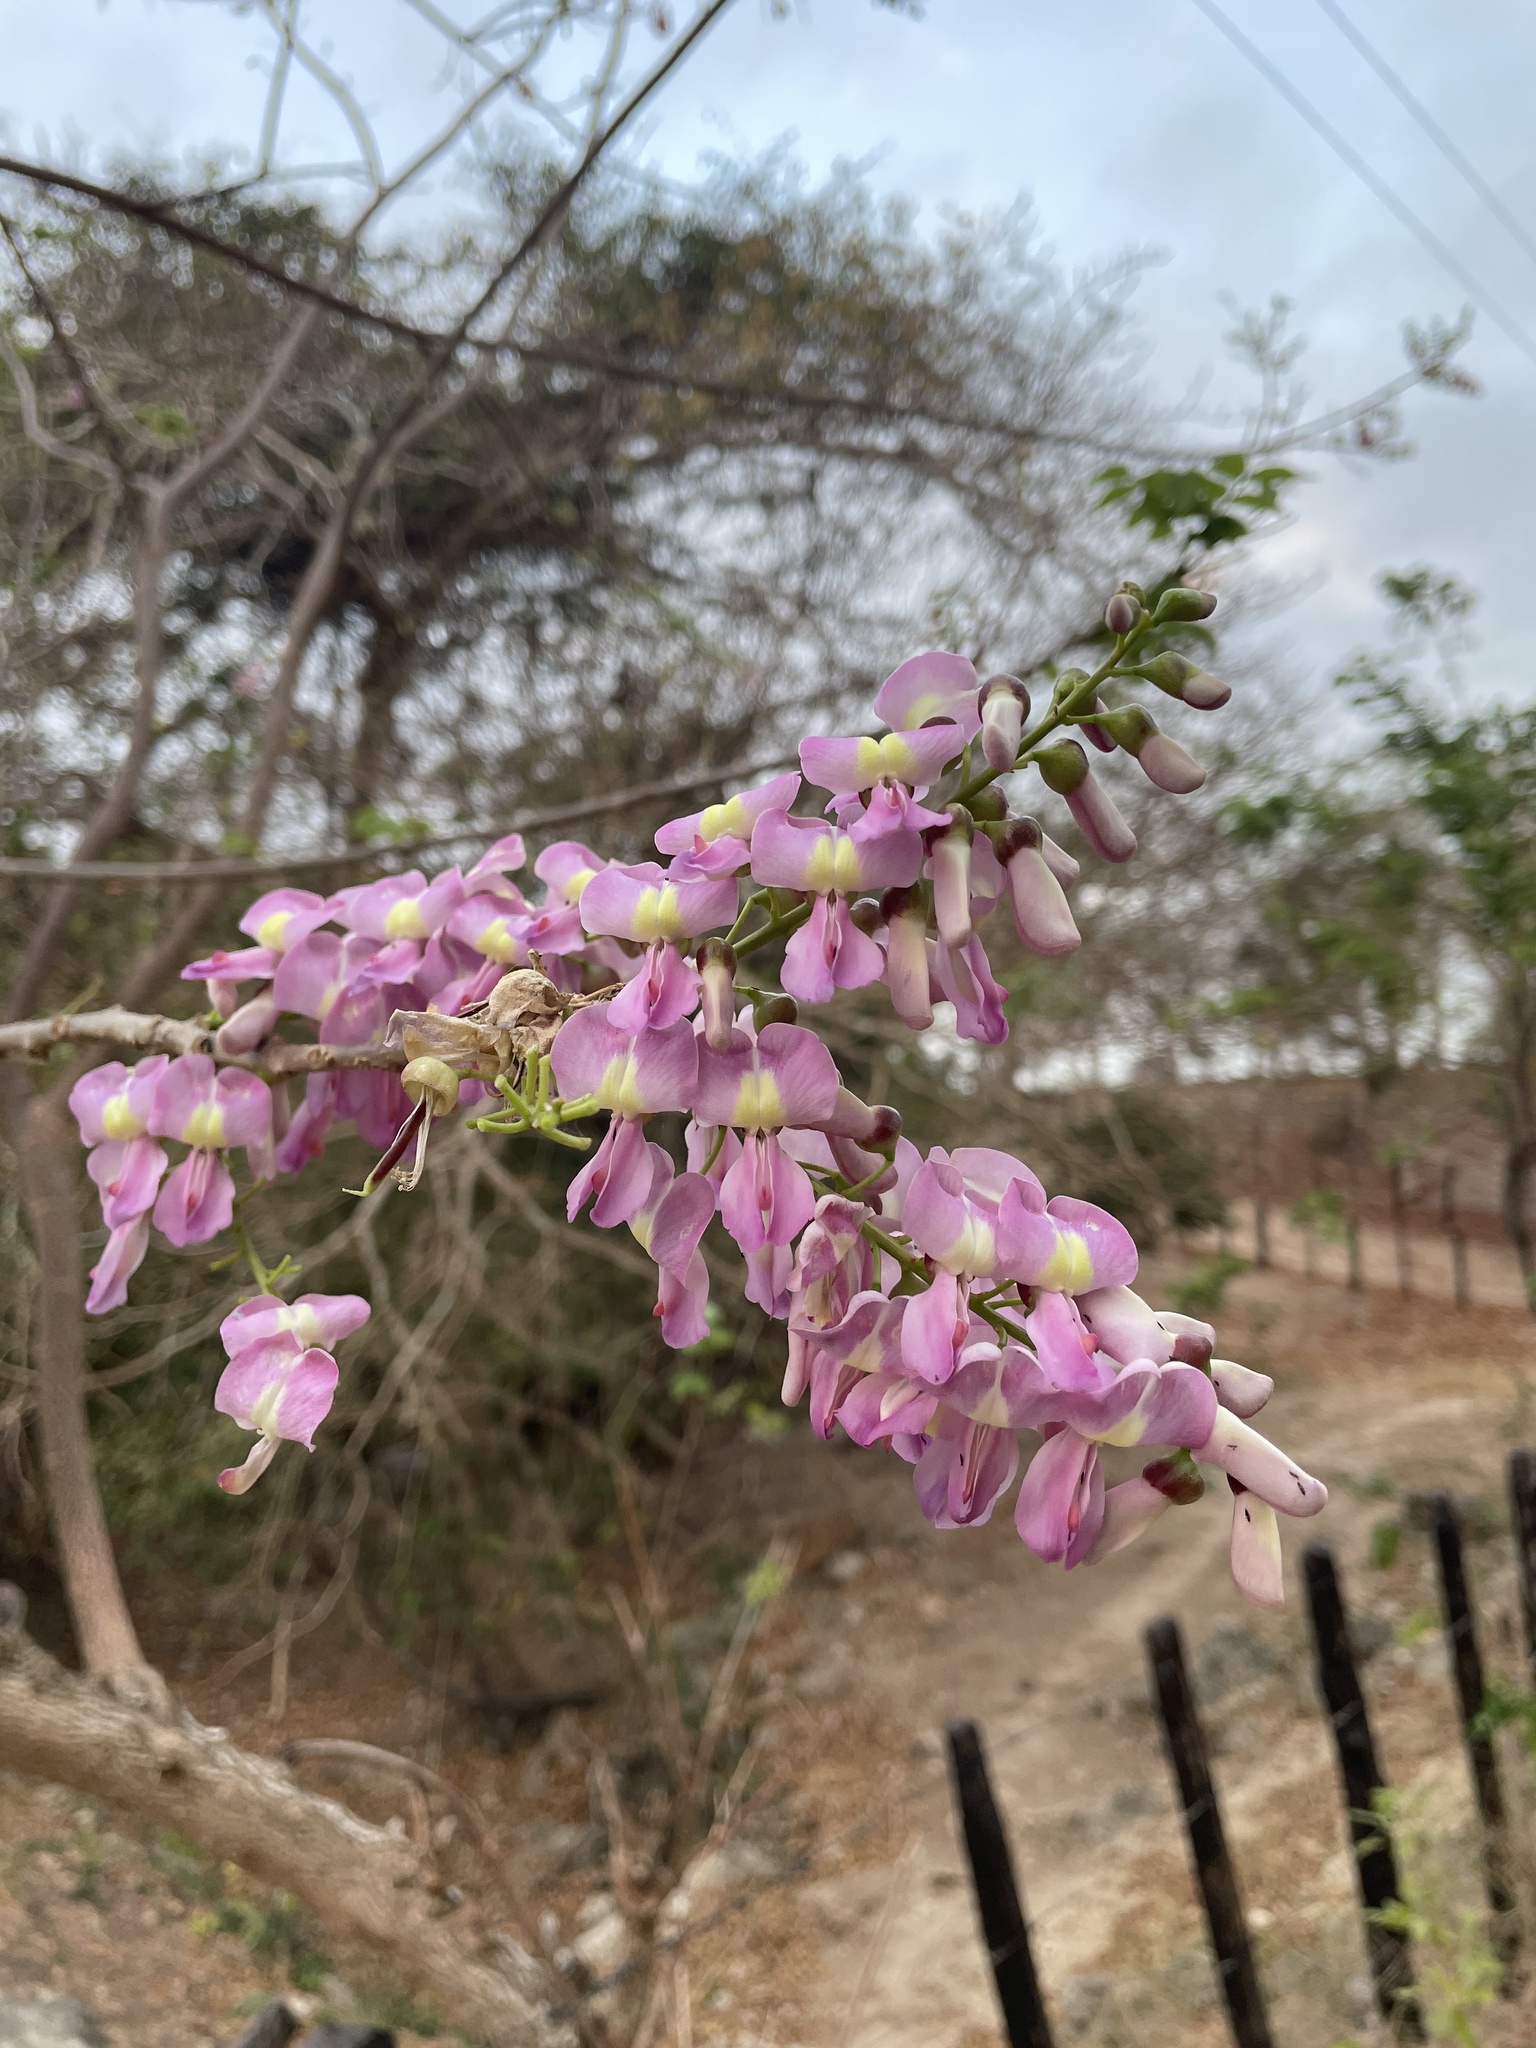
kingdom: Plantae
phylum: Tracheophyta
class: Magnoliopsida
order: Fabales
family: Fabaceae
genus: Gliricidia
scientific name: Gliricidia sepium
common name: Quickstick
